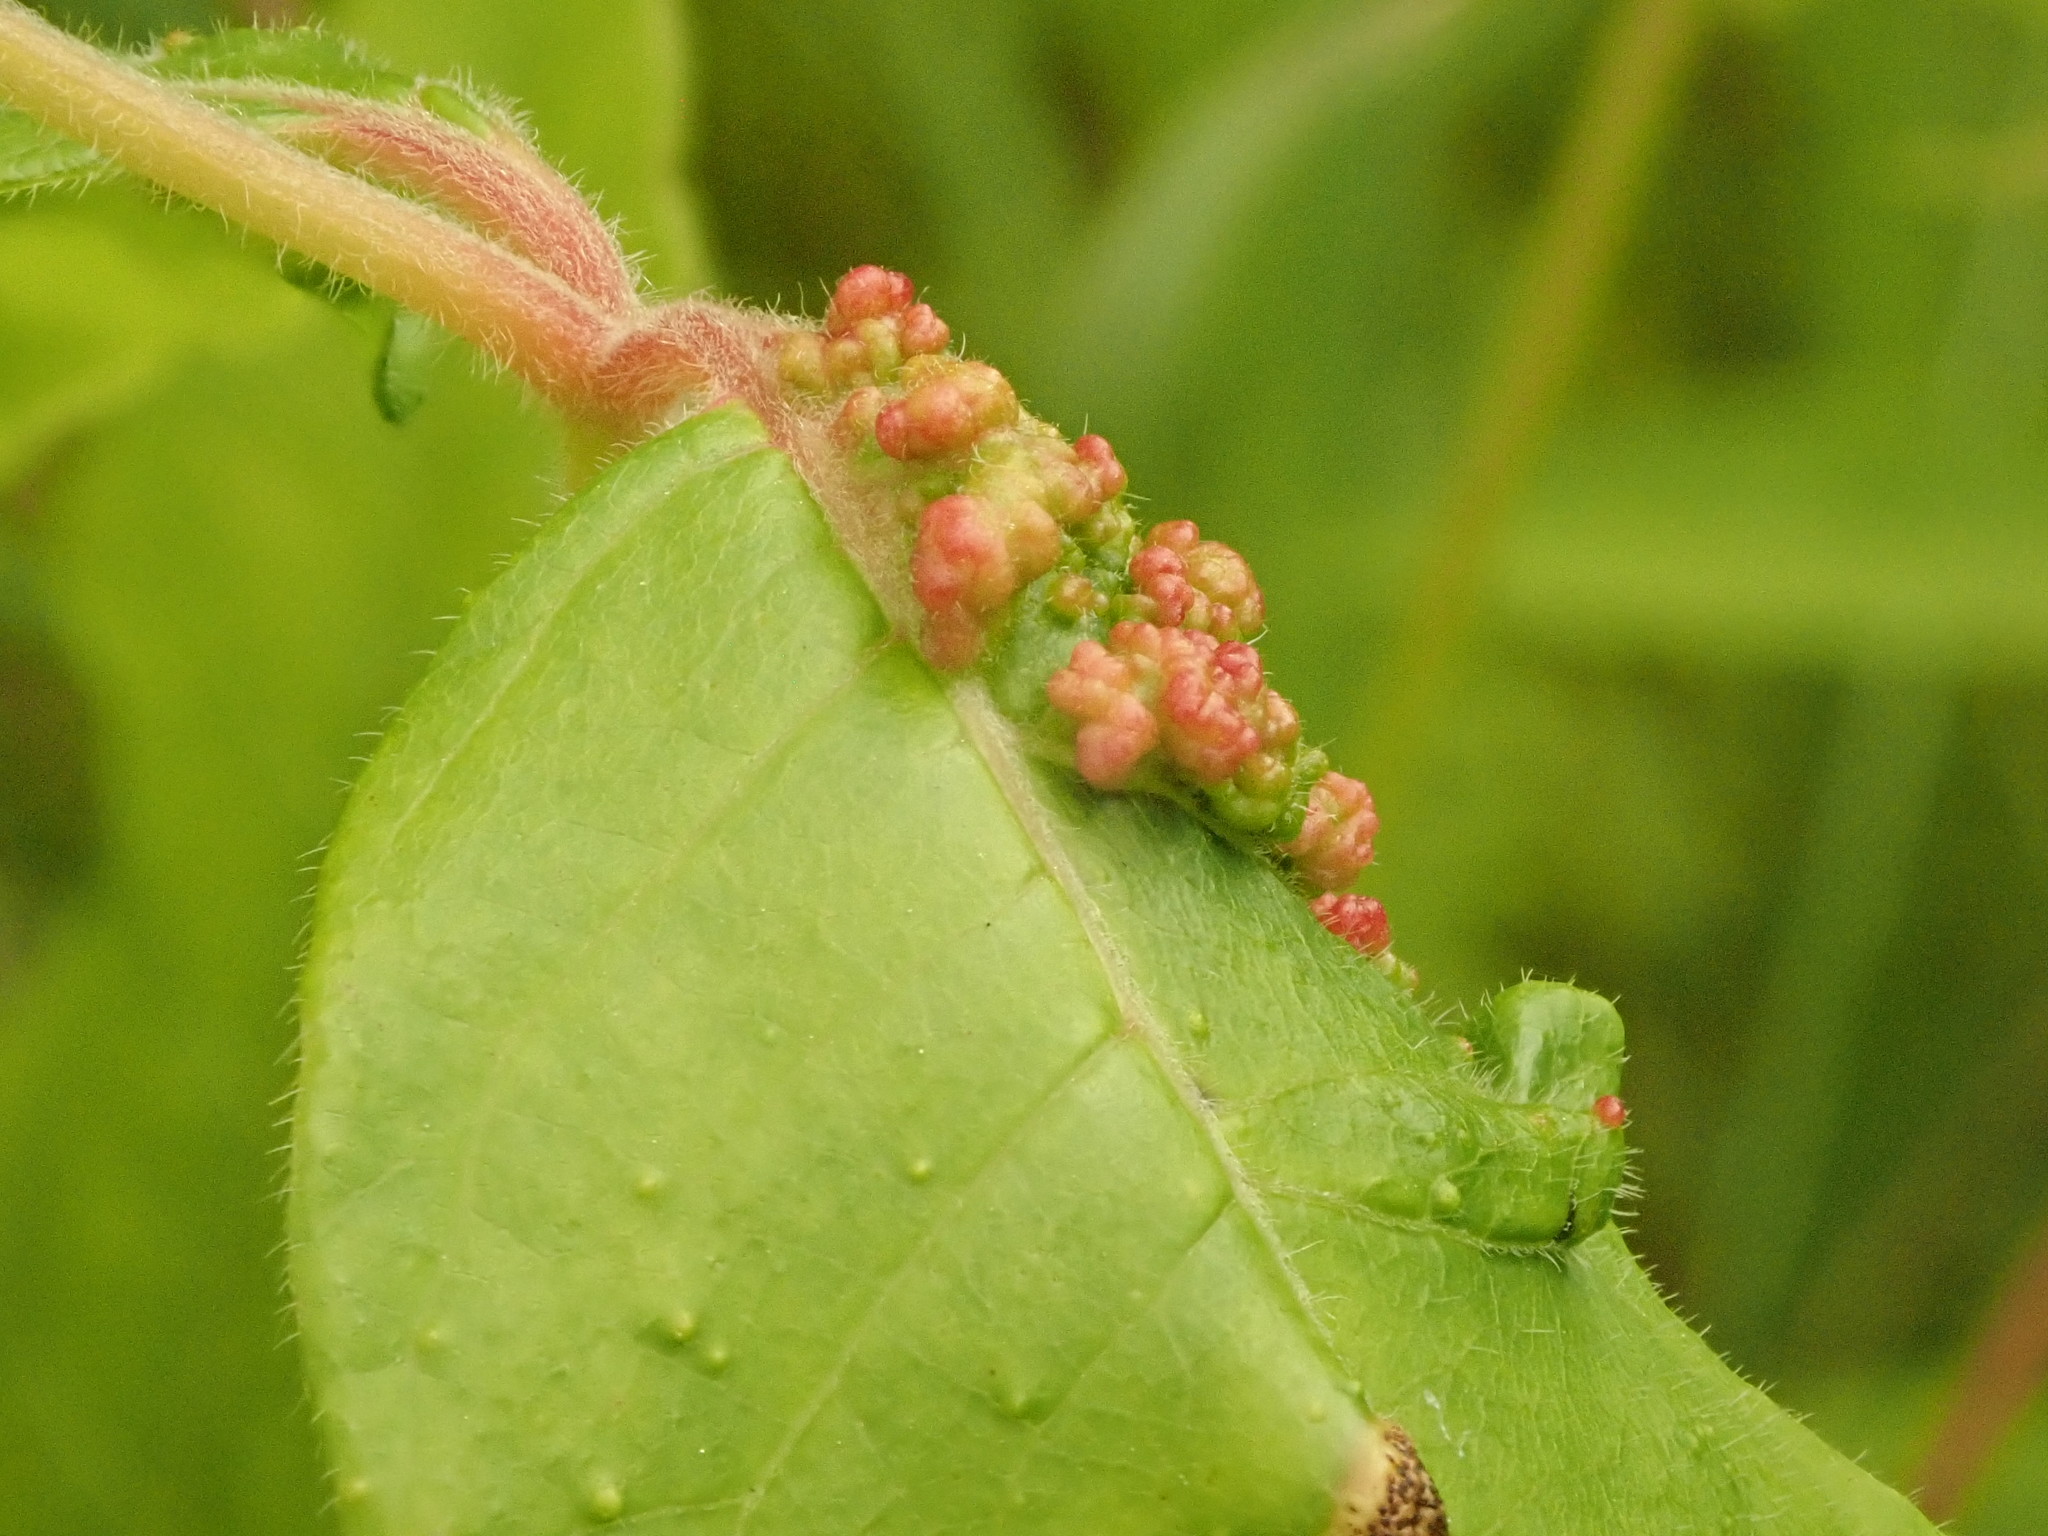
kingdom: Animalia
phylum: Arthropoda
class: Arachnida
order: Trombidiformes
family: Eriophyidae
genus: Aculops
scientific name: Aculops
